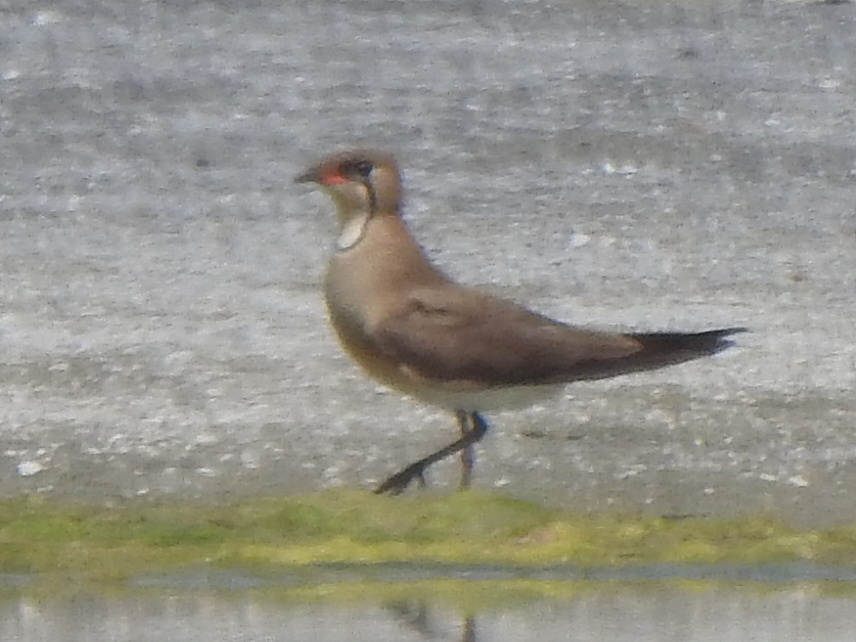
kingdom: Animalia
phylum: Chordata
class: Aves
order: Charadriiformes
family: Glareolidae
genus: Glareola
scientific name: Glareola maldivarum
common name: Oriental pratincole
